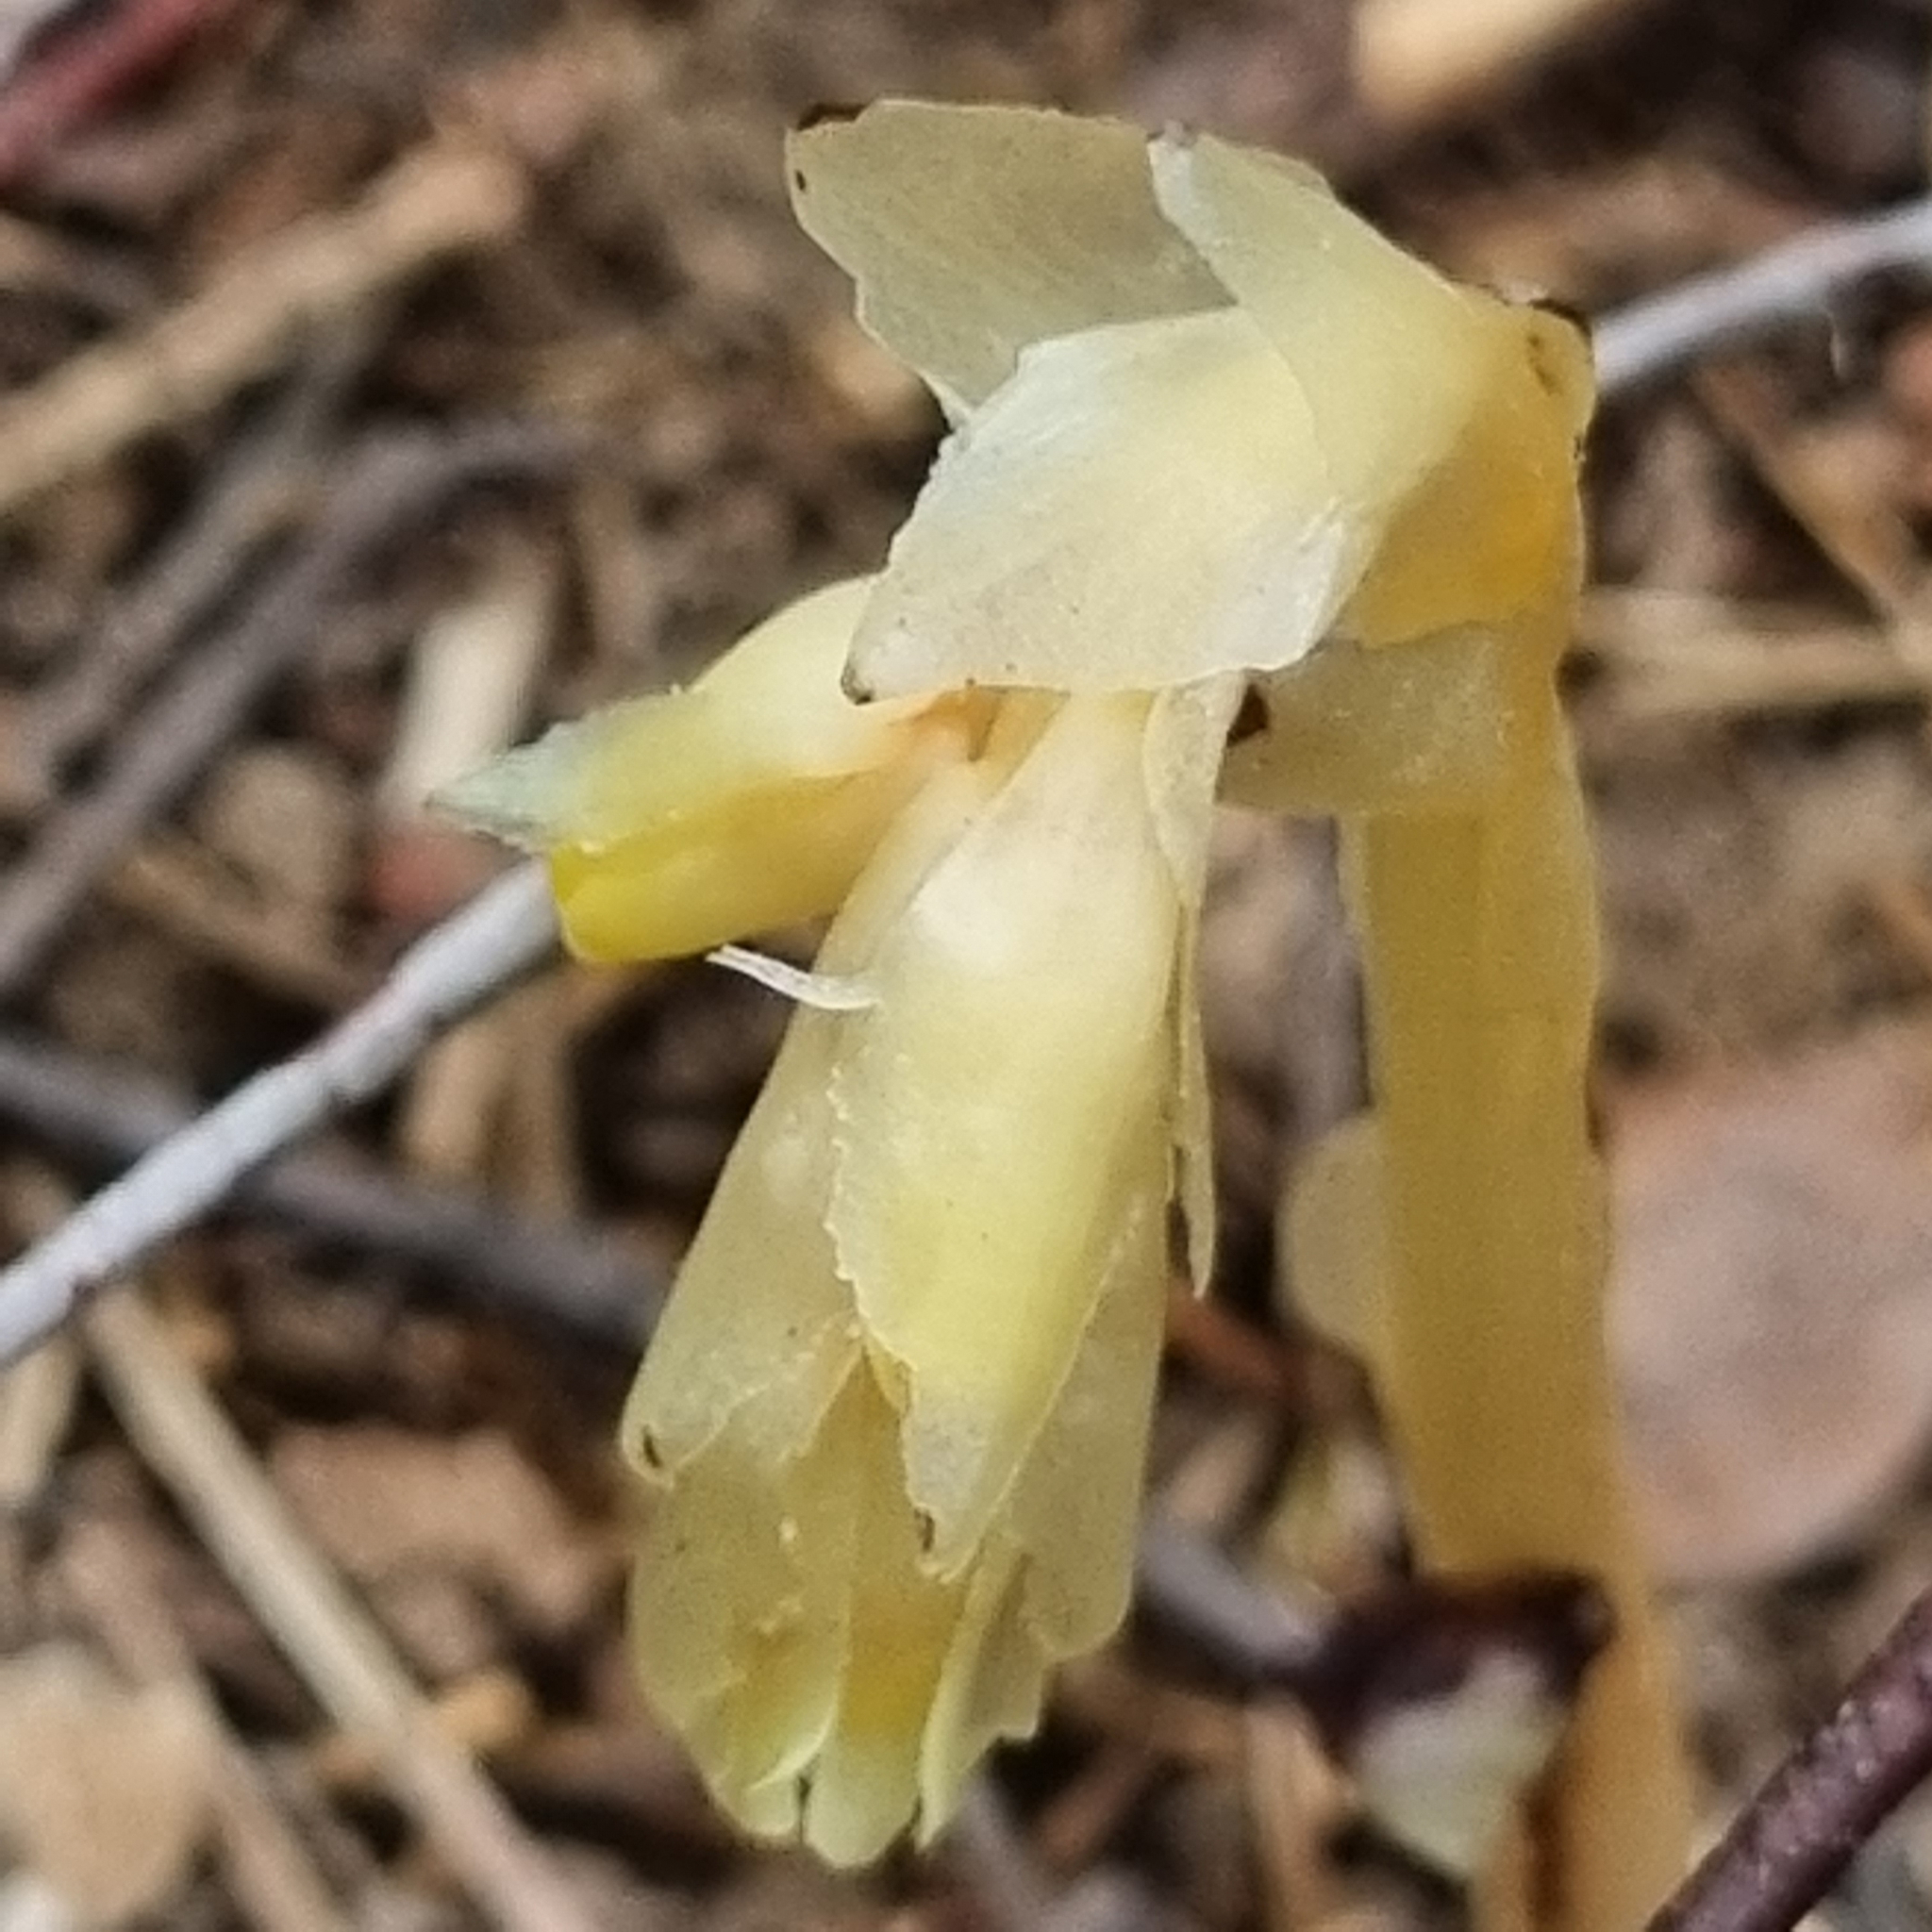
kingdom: Plantae
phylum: Tracheophyta
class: Magnoliopsida
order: Ericales
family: Ericaceae
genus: Hypopitys
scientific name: Hypopitys monotropa
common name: Yellow bird's-nest
